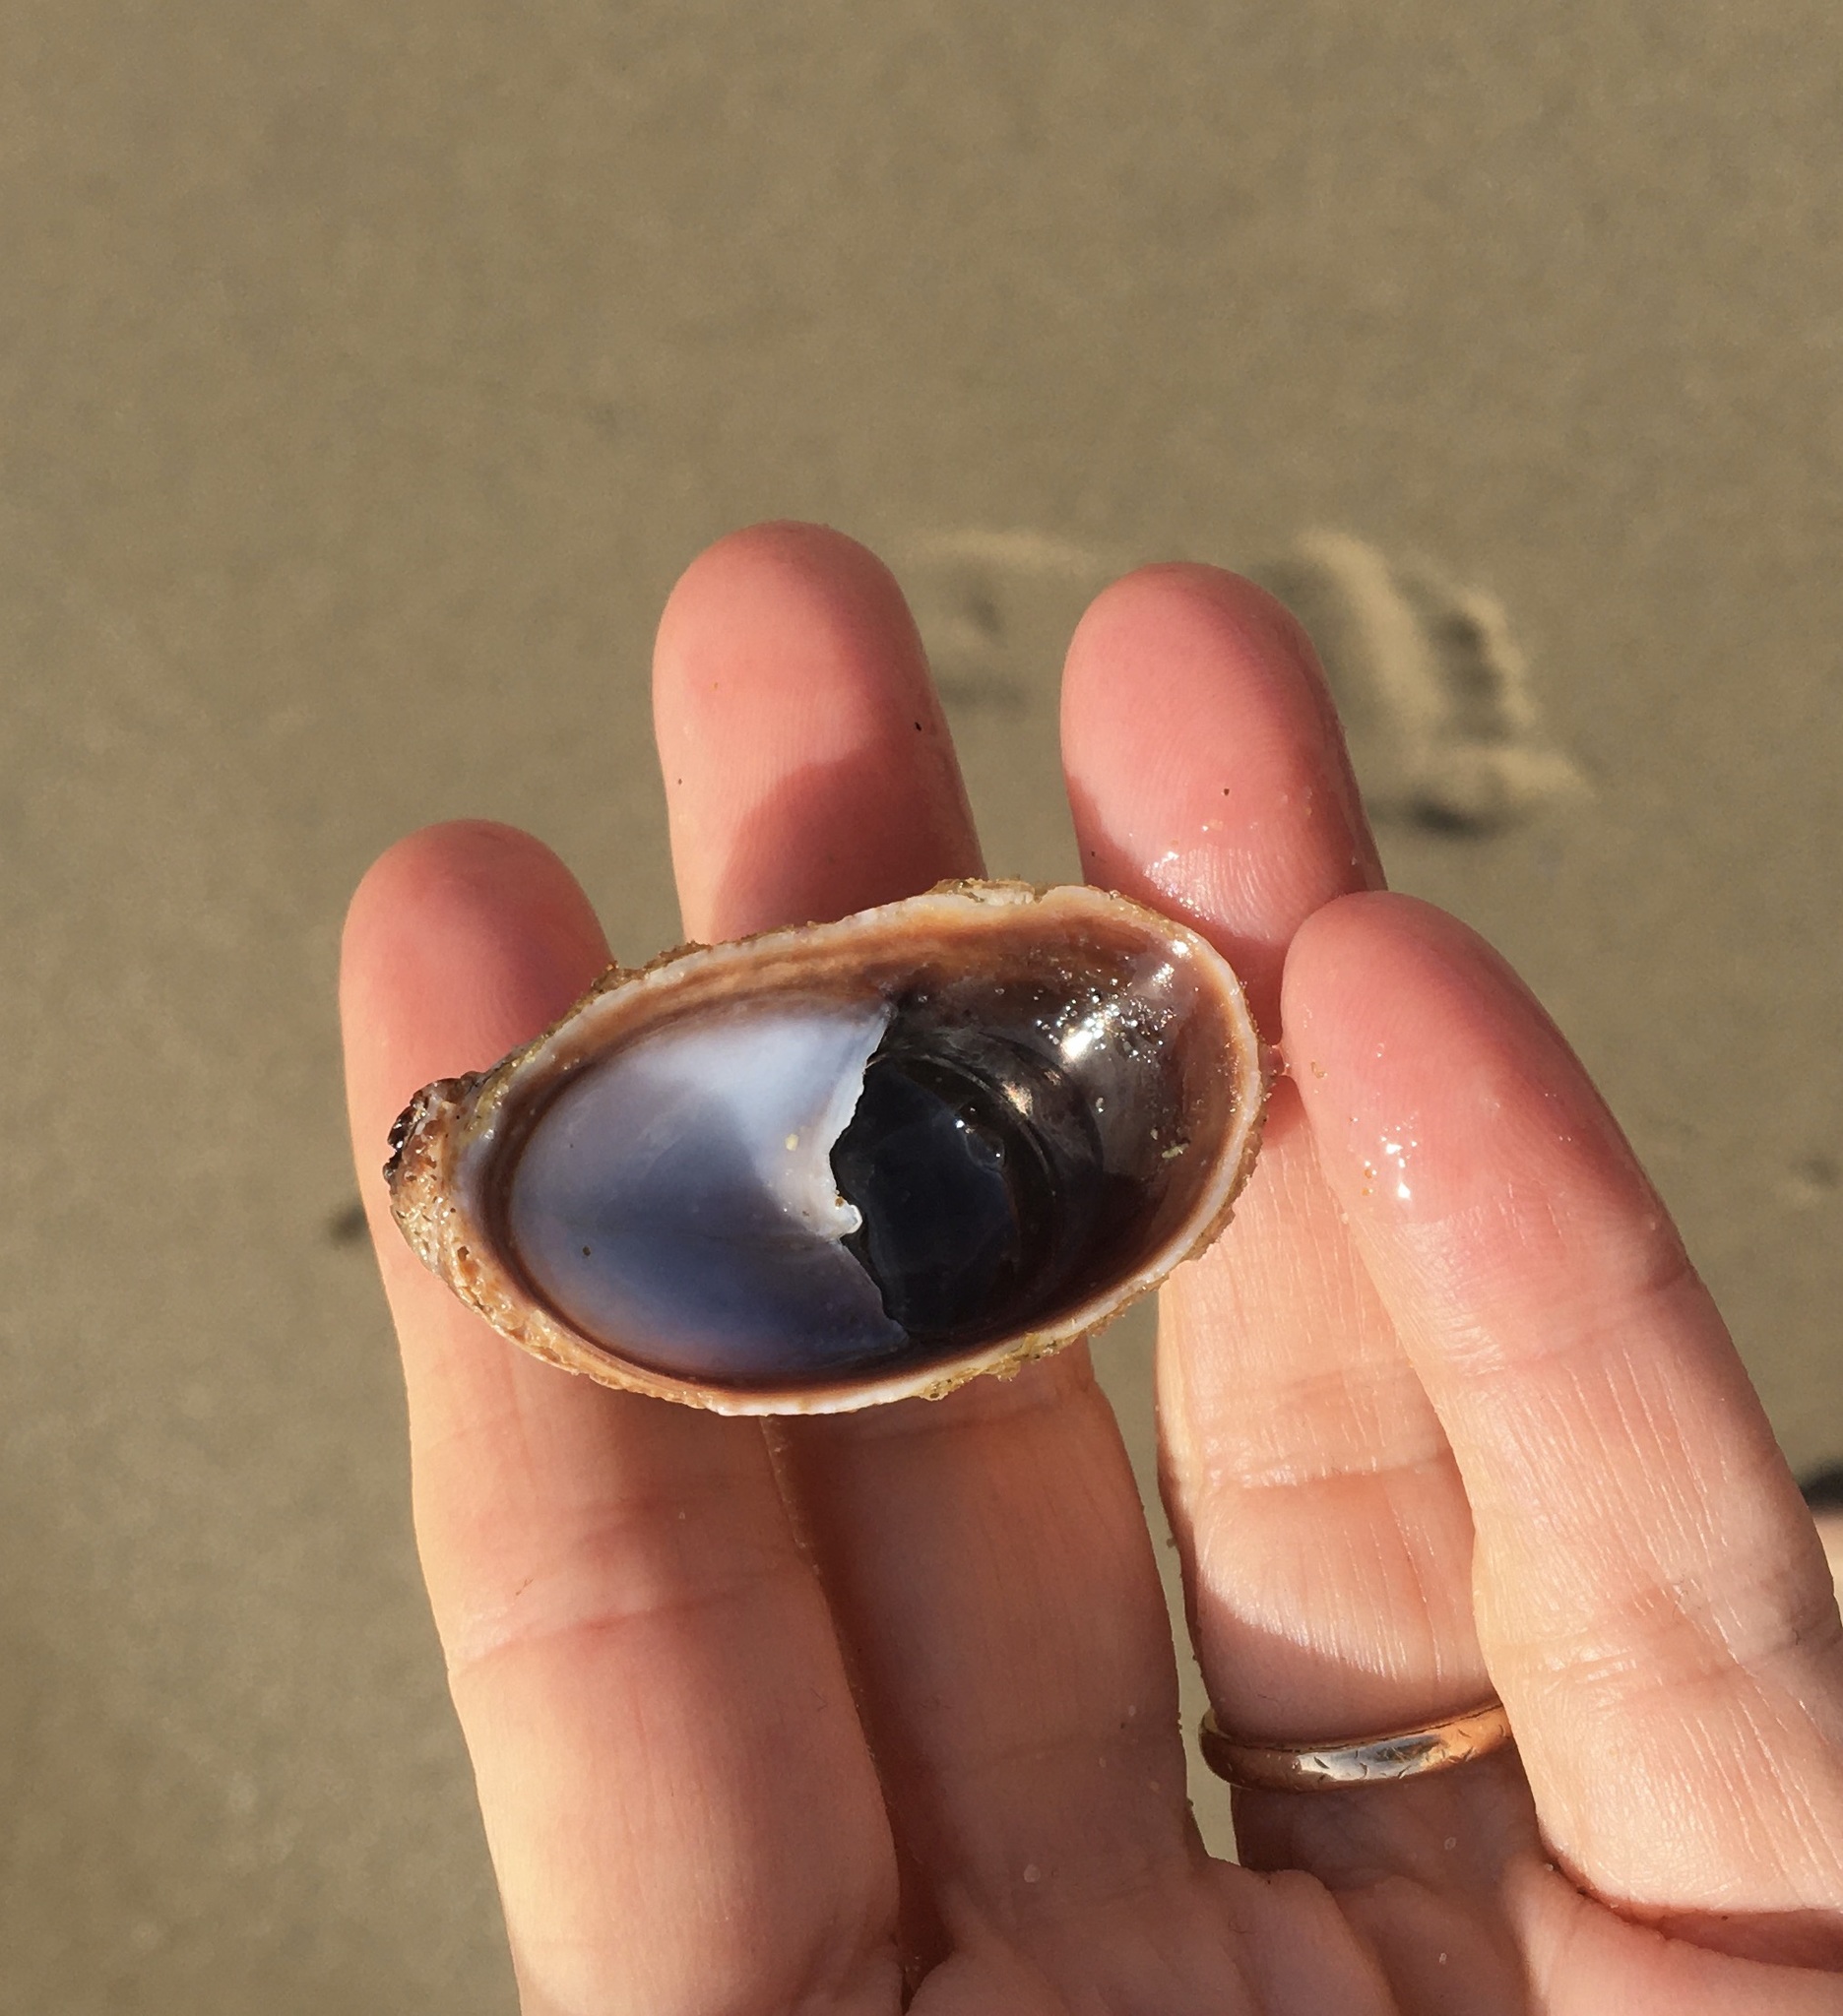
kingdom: Animalia
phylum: Mollusca
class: Gastropoda
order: Littorinimorpha
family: Calyptraeidae
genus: Crepidula
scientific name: Crepidula onyx
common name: Onyx slippersnail
